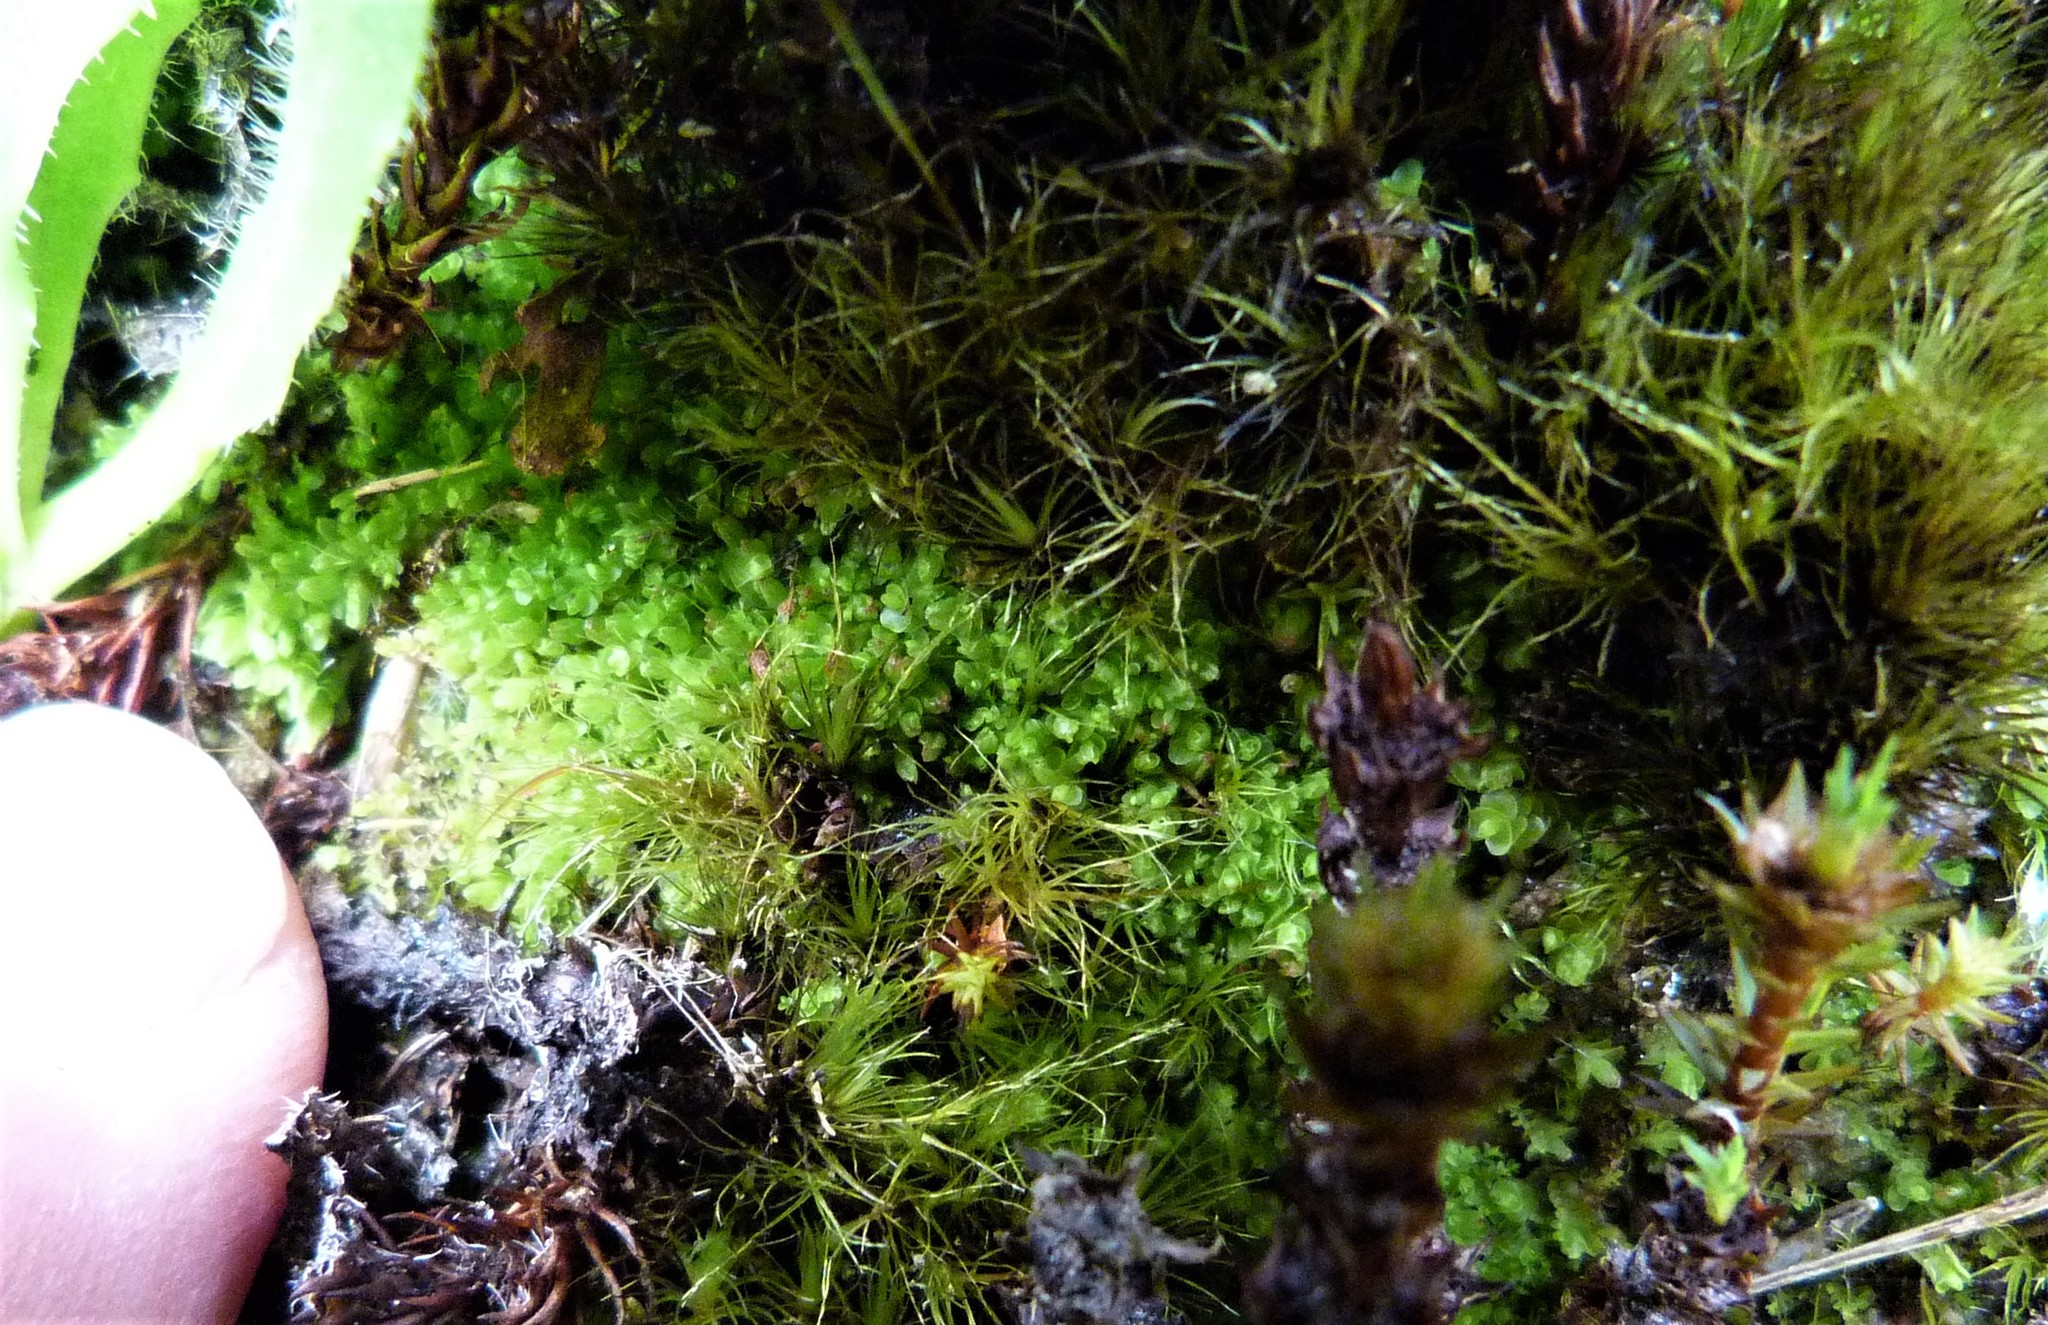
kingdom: Plantae
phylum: Marchantiophyta
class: Jungermanniopsida
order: Jungermanniales
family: Solenostomataceae
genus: Solenostoma
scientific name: Solenostoma inundatum
